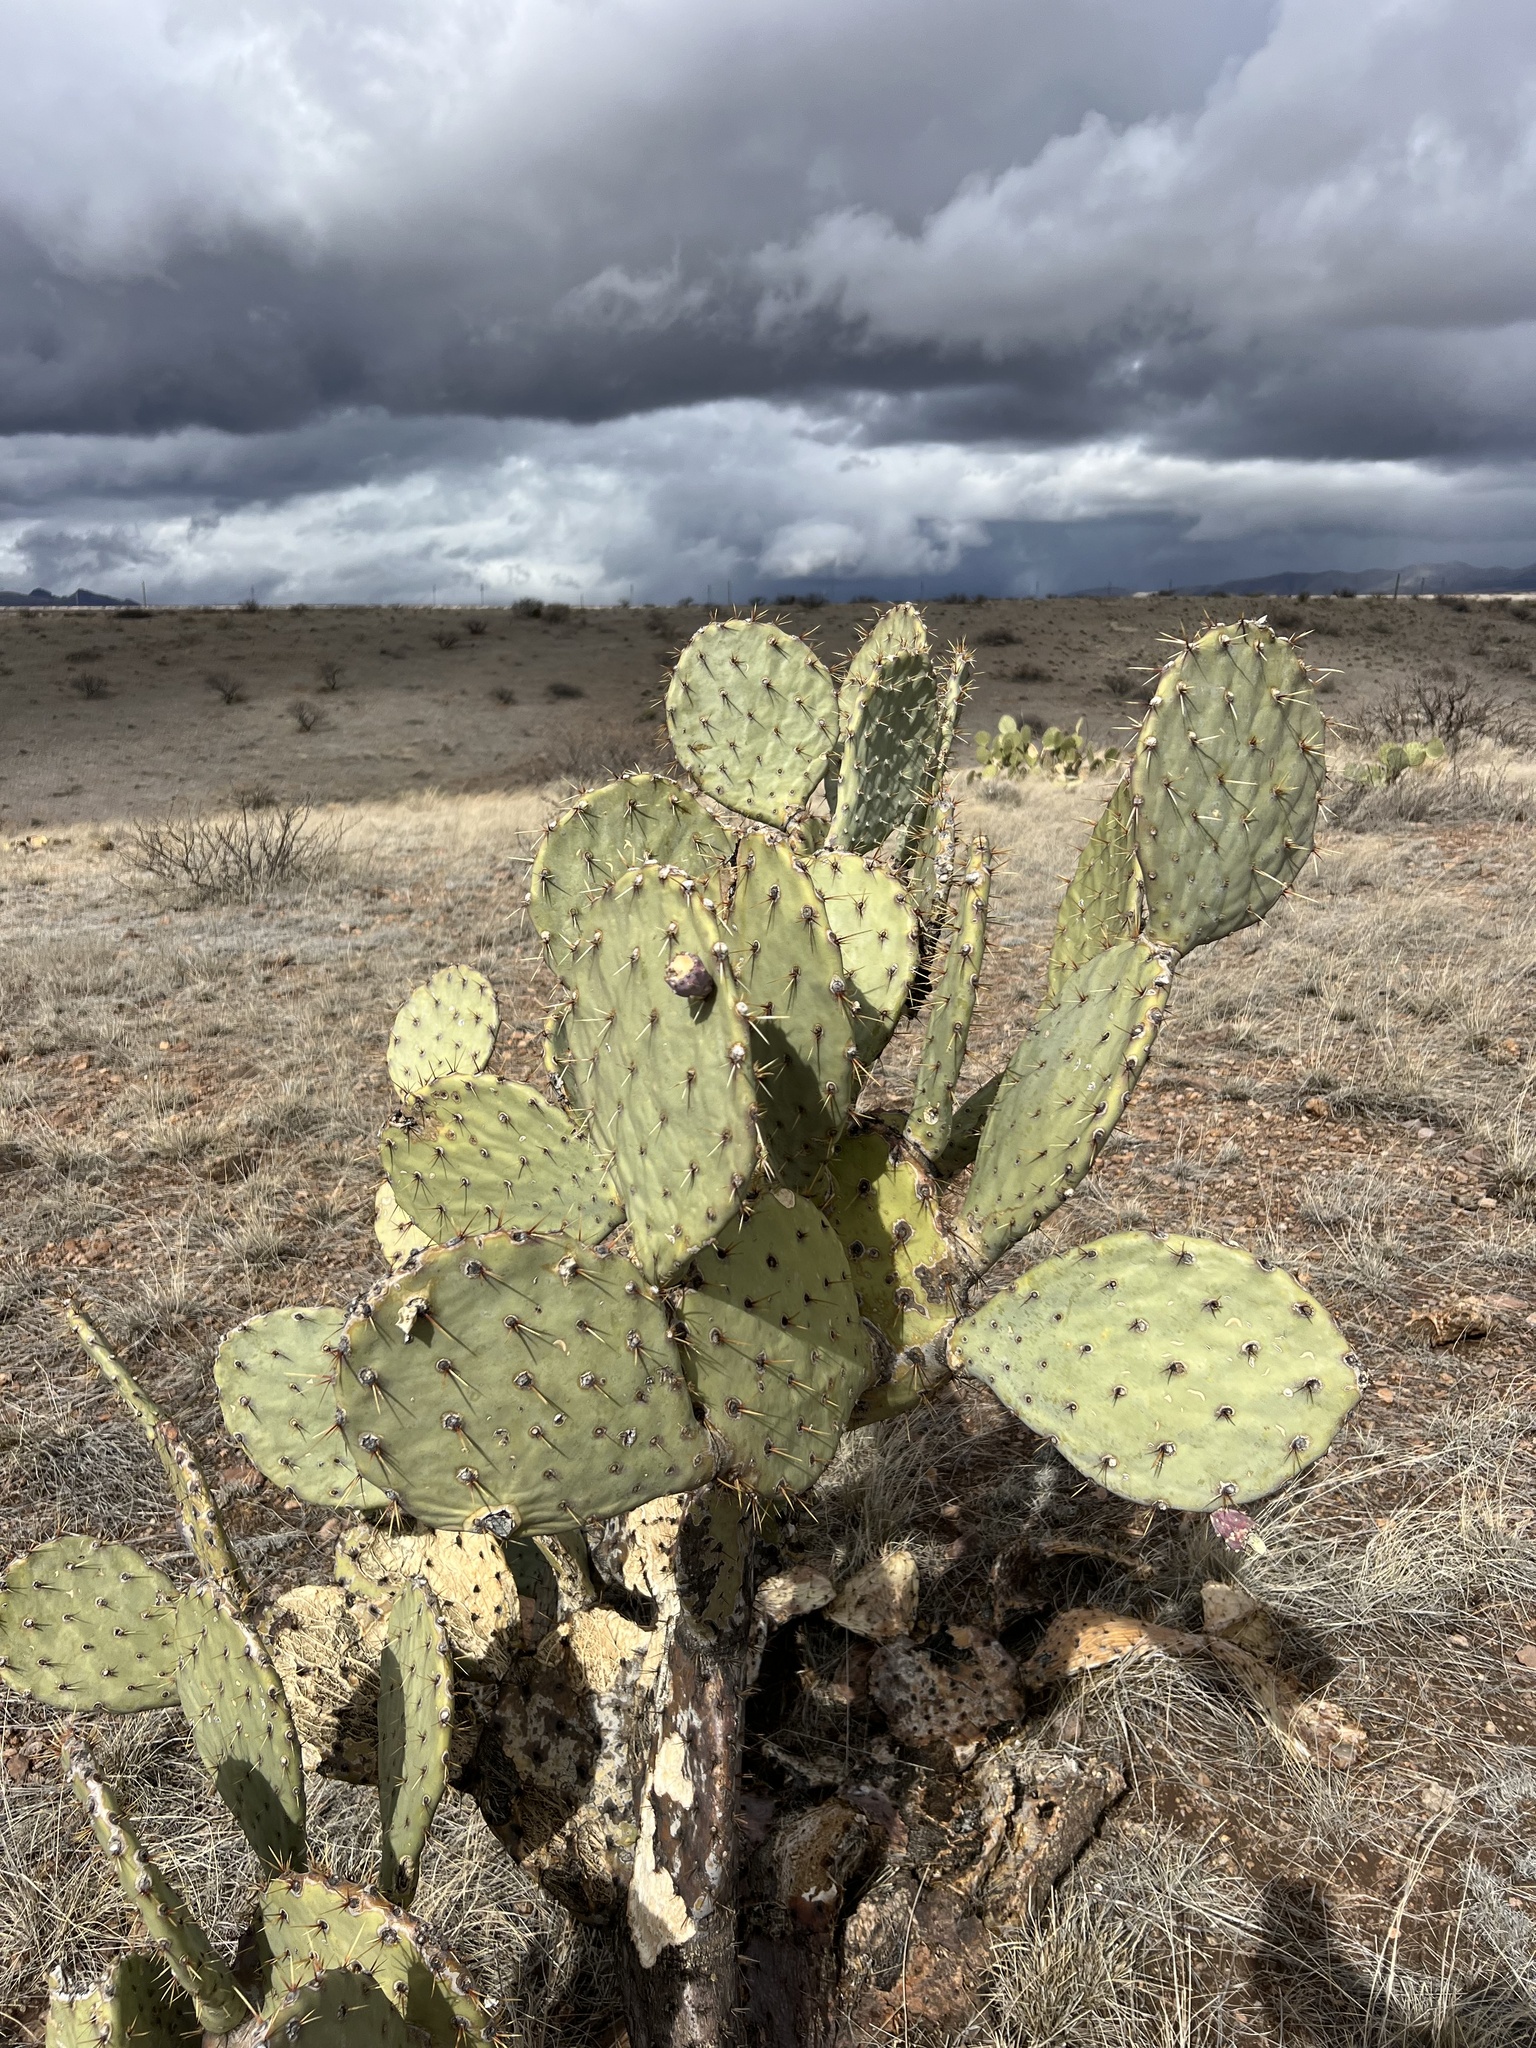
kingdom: Plantae
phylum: Tracheophyta
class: Magnoliopsida
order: Caryophyllales
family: Cactaceae
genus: Opuntia
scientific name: Opuntia engelmannii
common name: Cactus-apple
